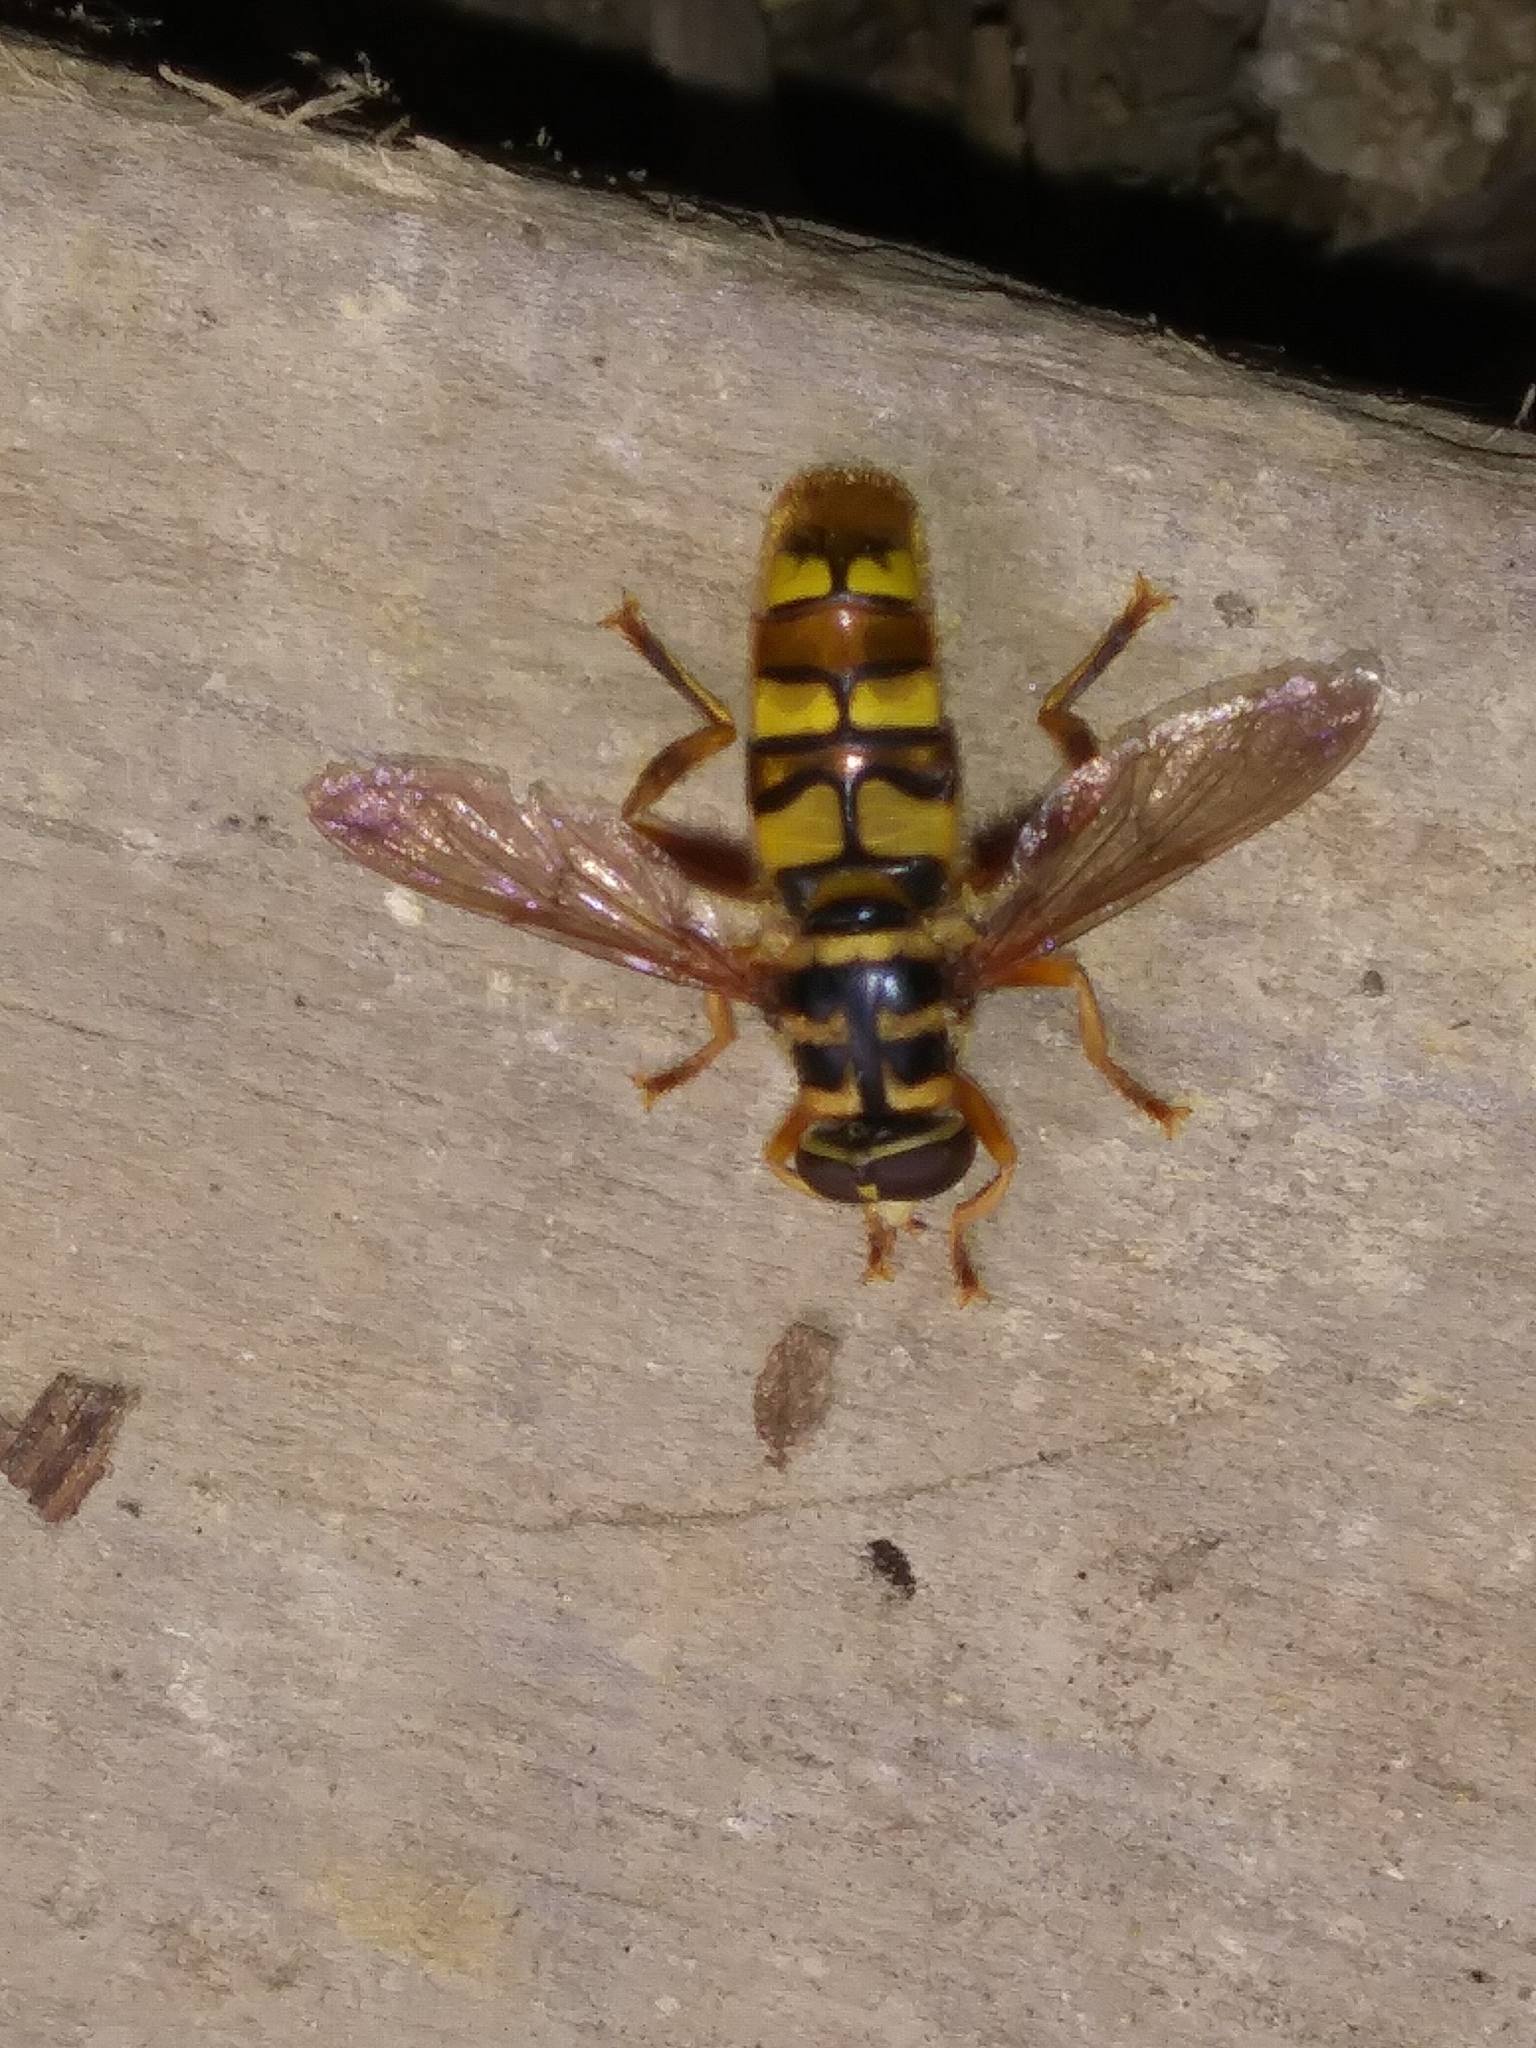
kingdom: Animalia
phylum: Arthropoda
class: Insecta
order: Diptera
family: Syrphidae
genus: Milesia
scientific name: Milesia virginiensis
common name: Virginia giant
